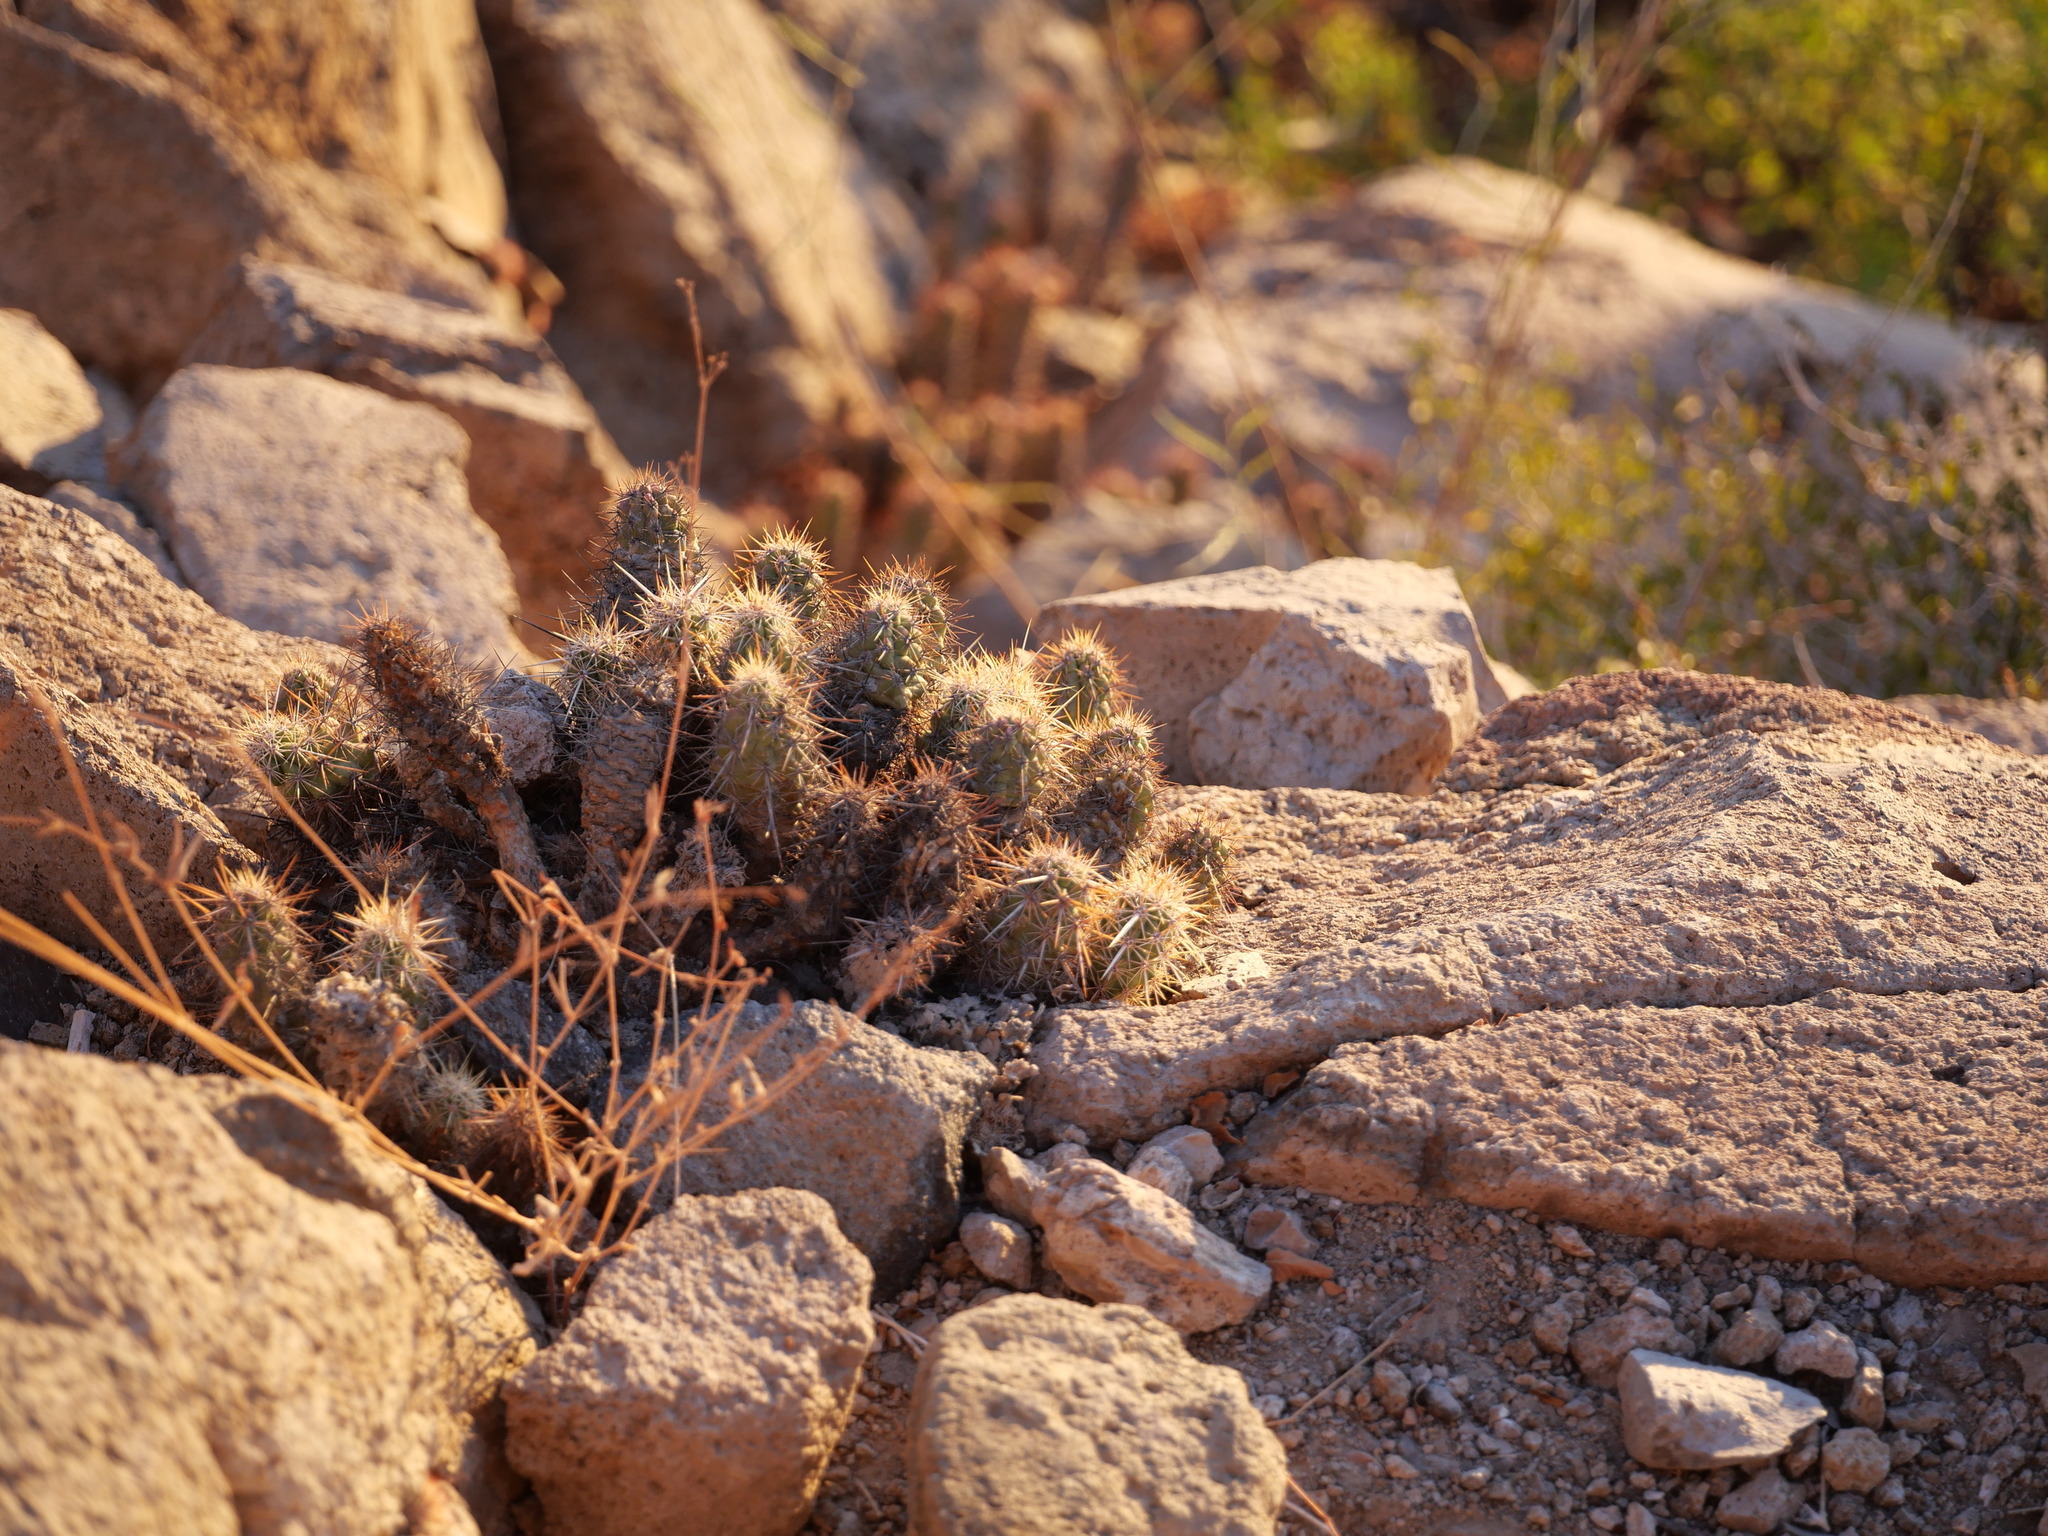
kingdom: Plantae
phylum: Tracheophyta
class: Magnoliopsida
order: Caryophyllales
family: Cactaceae
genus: Echinocereus
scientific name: Echinocereus brandegeei
